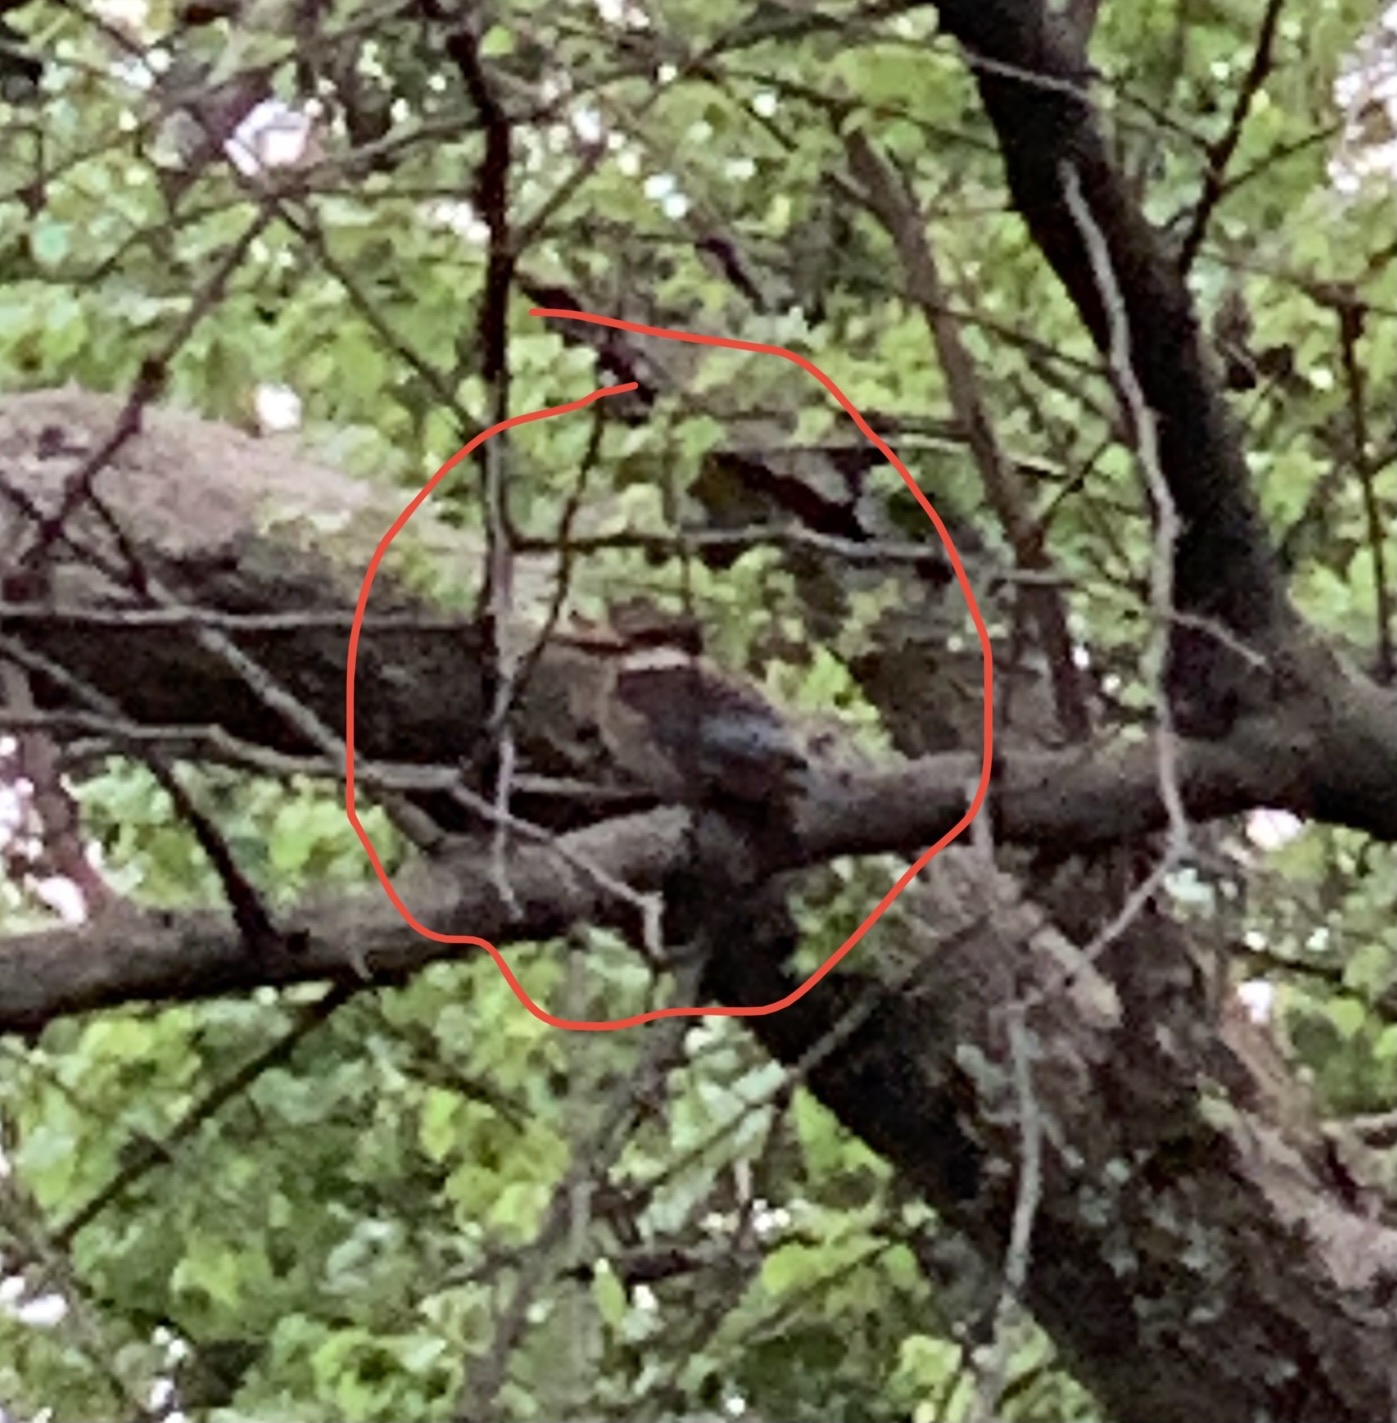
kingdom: Animalia
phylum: Chordata
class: Aves
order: Coraciiformes
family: Alcedinidae
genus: Halcyon
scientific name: Halcyon albiventris
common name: Brown-hooded kingfisher
